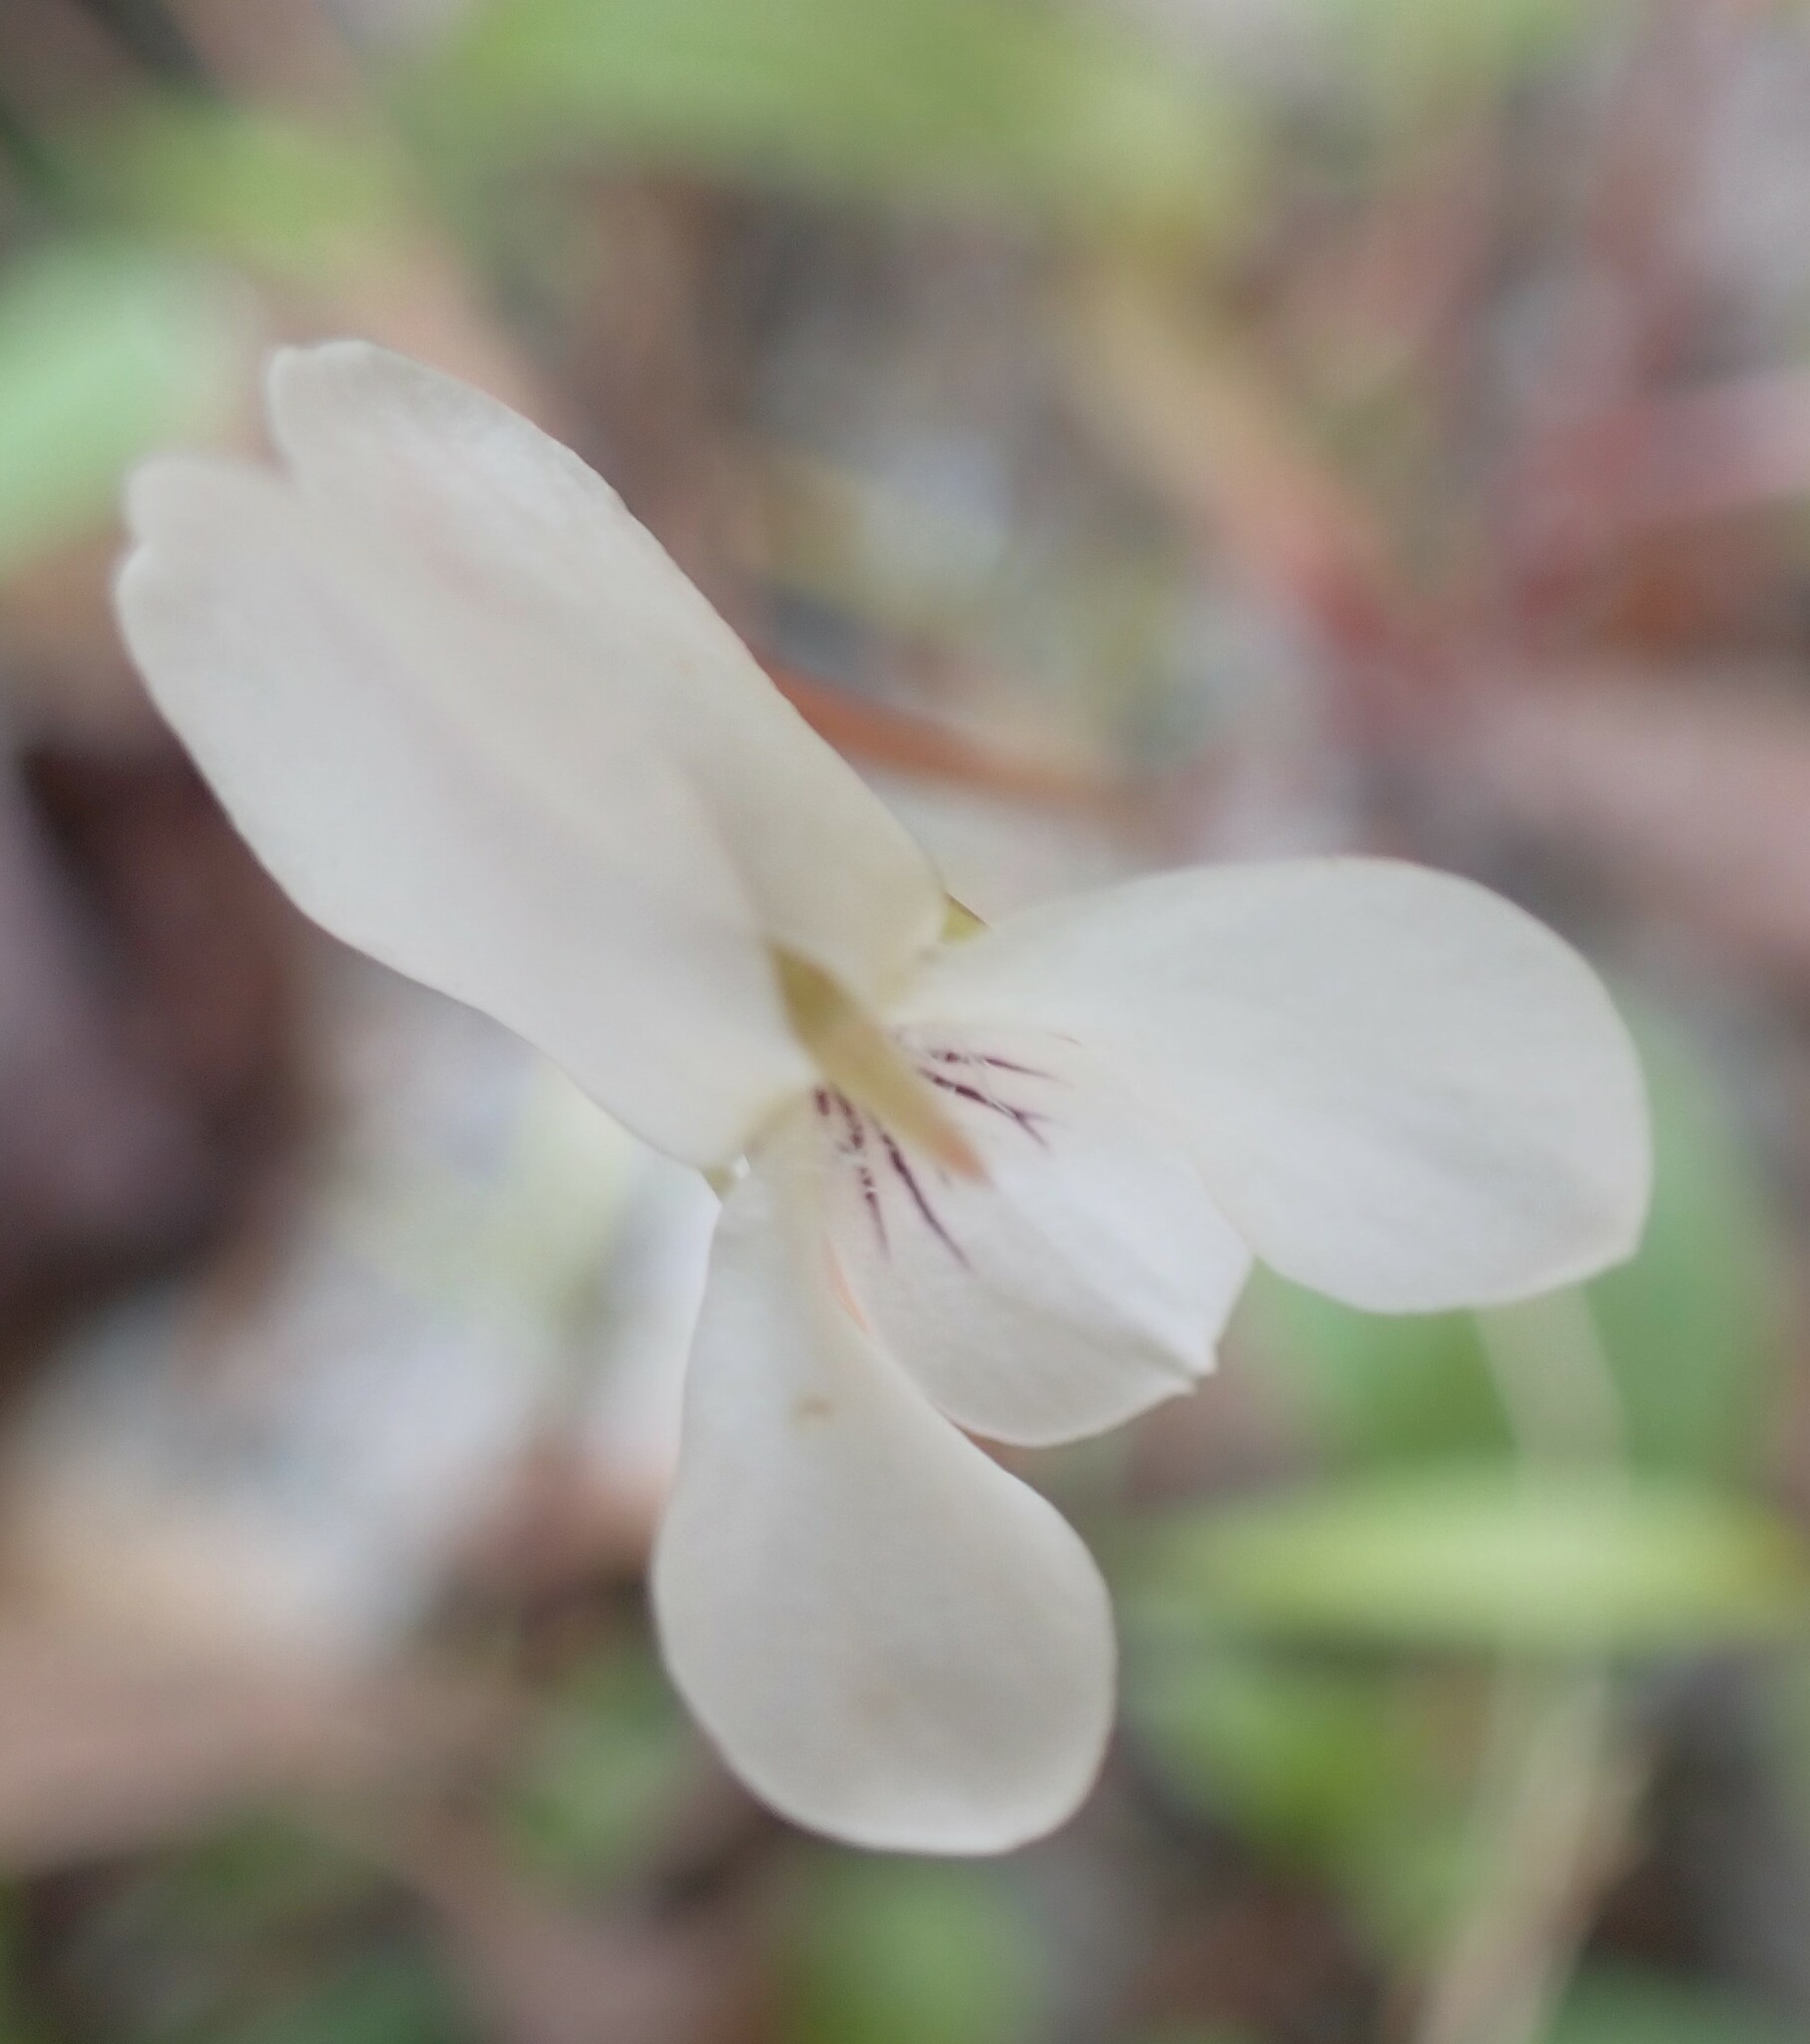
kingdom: Plantae
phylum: Tracheophyta
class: Magnoliopsida
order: Malpighiales
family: Violaceae
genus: Viola
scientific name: Viola primulifolia
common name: Primrose-leaf violet
